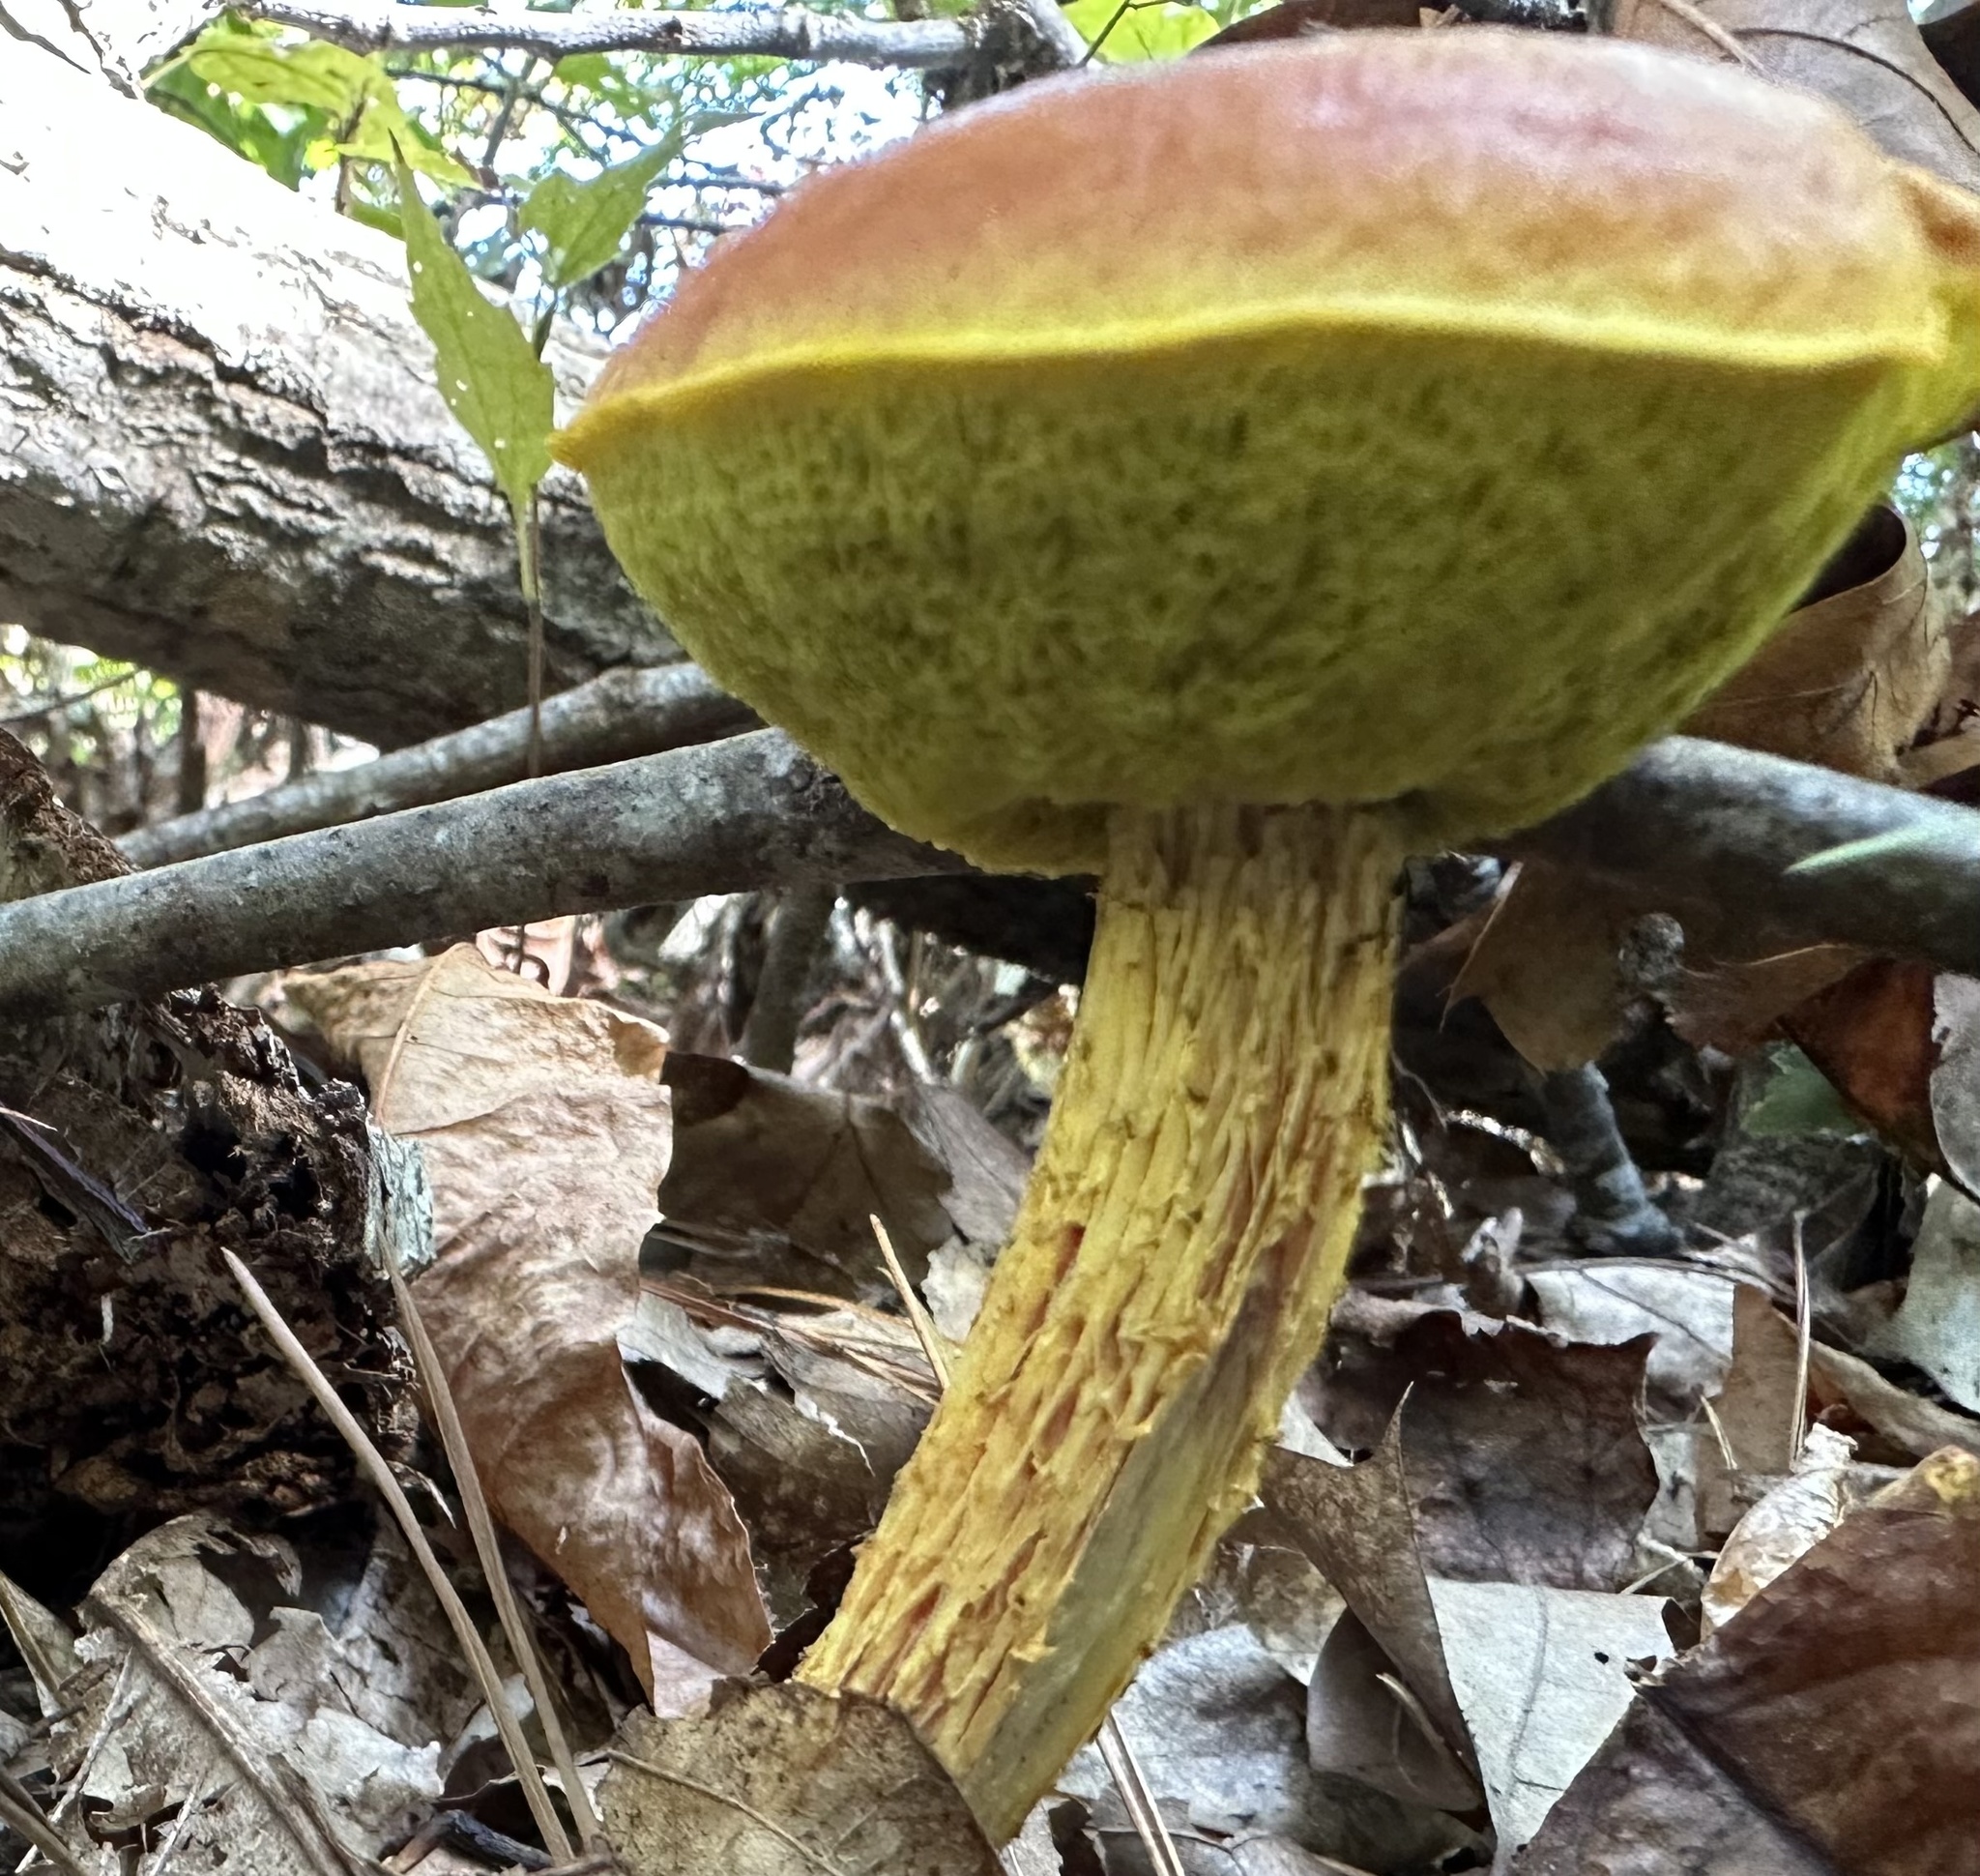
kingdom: Fungi
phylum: Basidiomycota
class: Agaricomycetes
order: Boletales
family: Boletaceae
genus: Aureoboletus
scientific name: Aureoboletus betula
